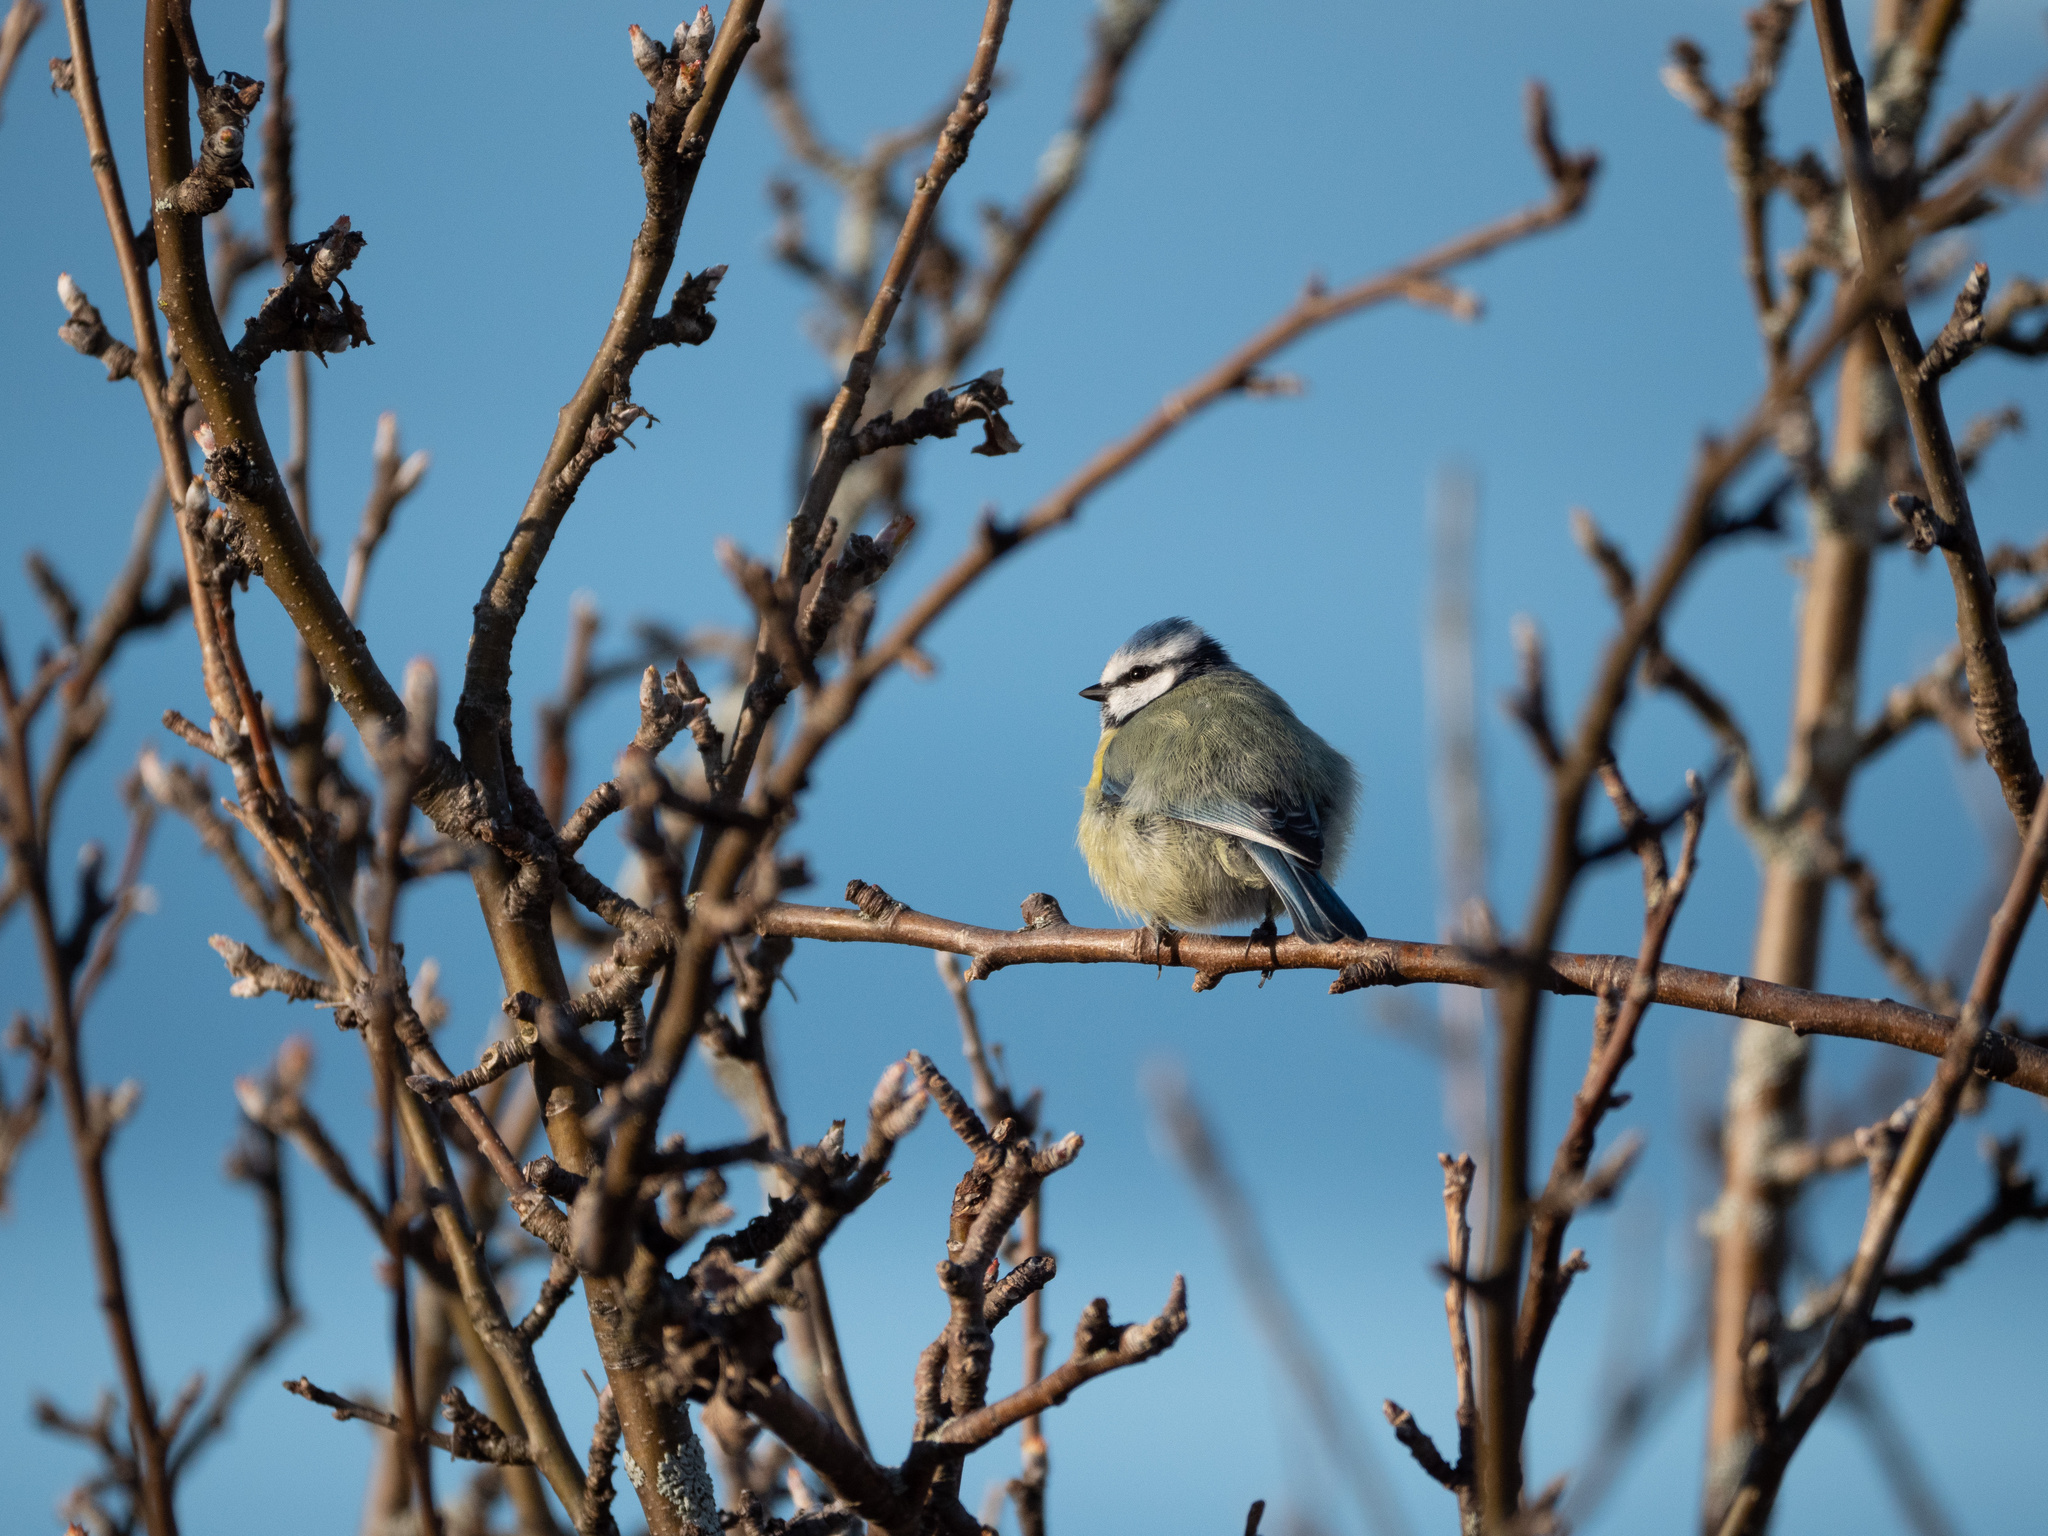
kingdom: Animalia
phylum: Chordata
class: Aves
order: Passeriformes
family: Paridae
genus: Cyanistes
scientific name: Cyanistes caeruleus
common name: Eurasian blue tit
